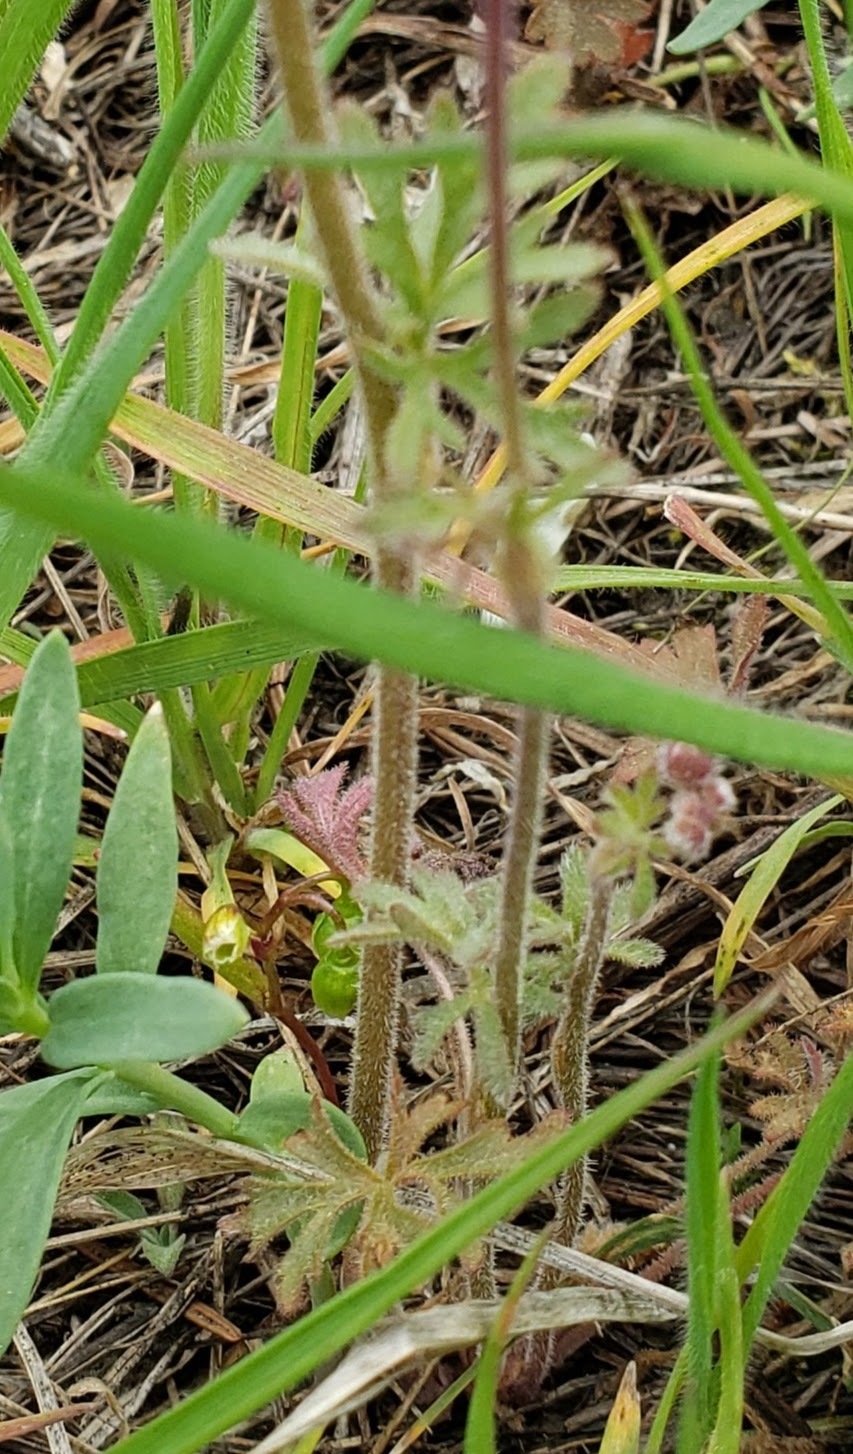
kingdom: Plantae
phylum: Tracheophyta
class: Magnoliopsida
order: Saxifragales
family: Saxifragaceae
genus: Lithophragma
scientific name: Lithophragma parviflorum
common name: Small-flowered fringe-cup
